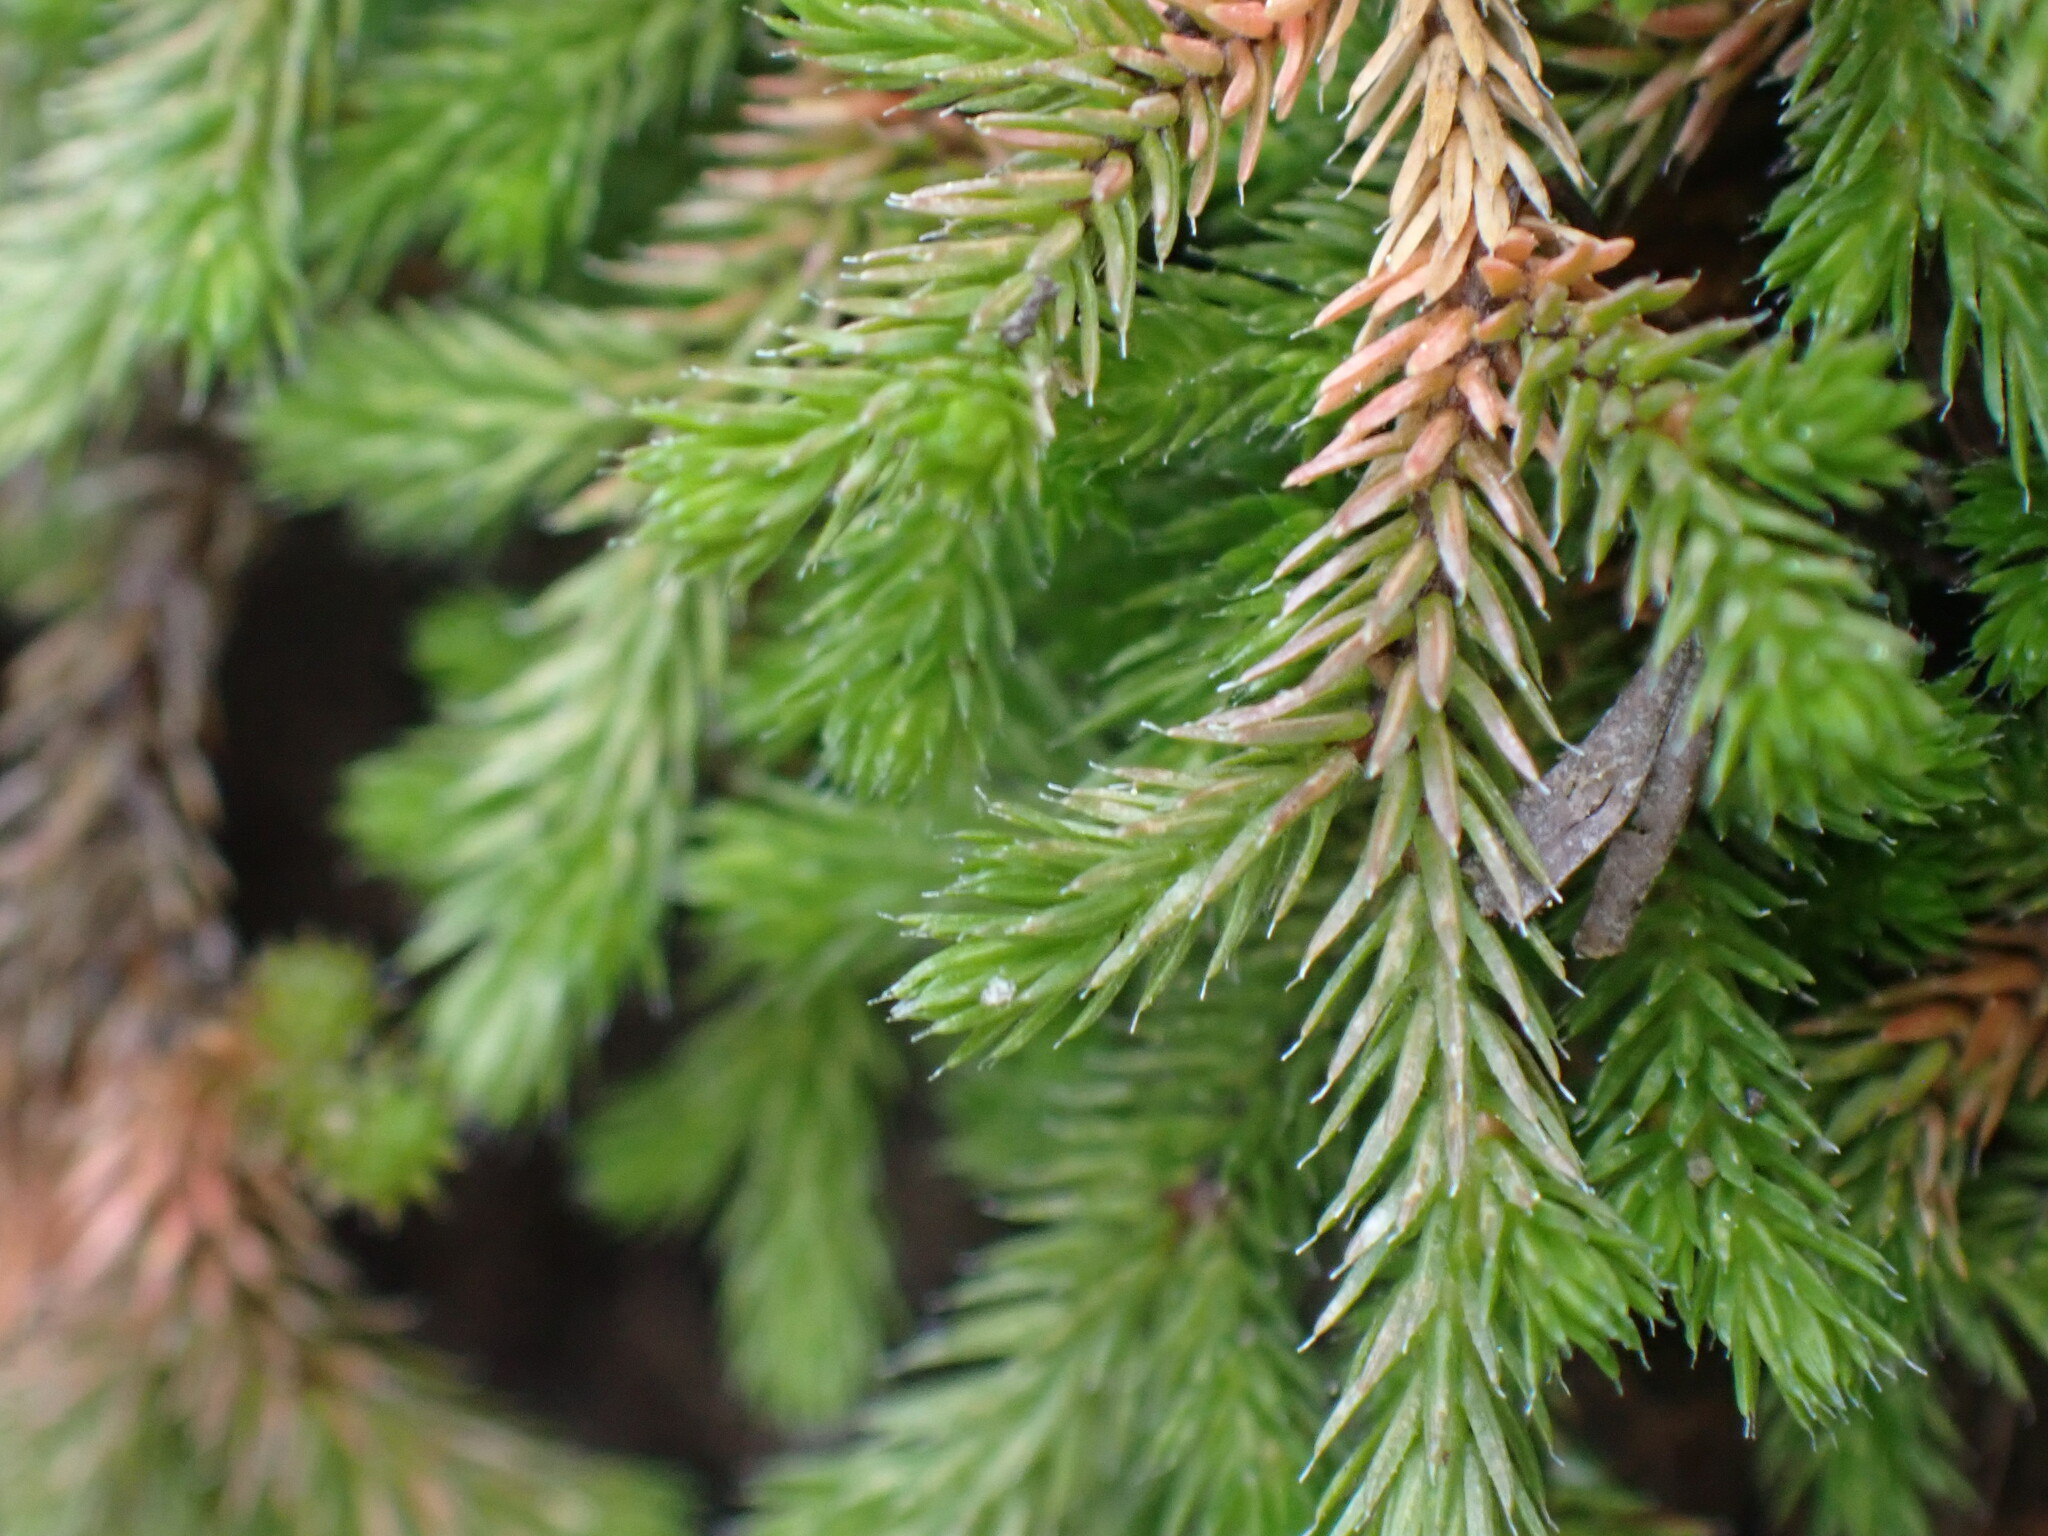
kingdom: Plantae
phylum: Tracheophyta
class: Lycopodiopsida
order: Selaginellales
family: Selaginellaceae
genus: Selaginella
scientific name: Selaginella wallacei
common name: Wallace's selaginella
